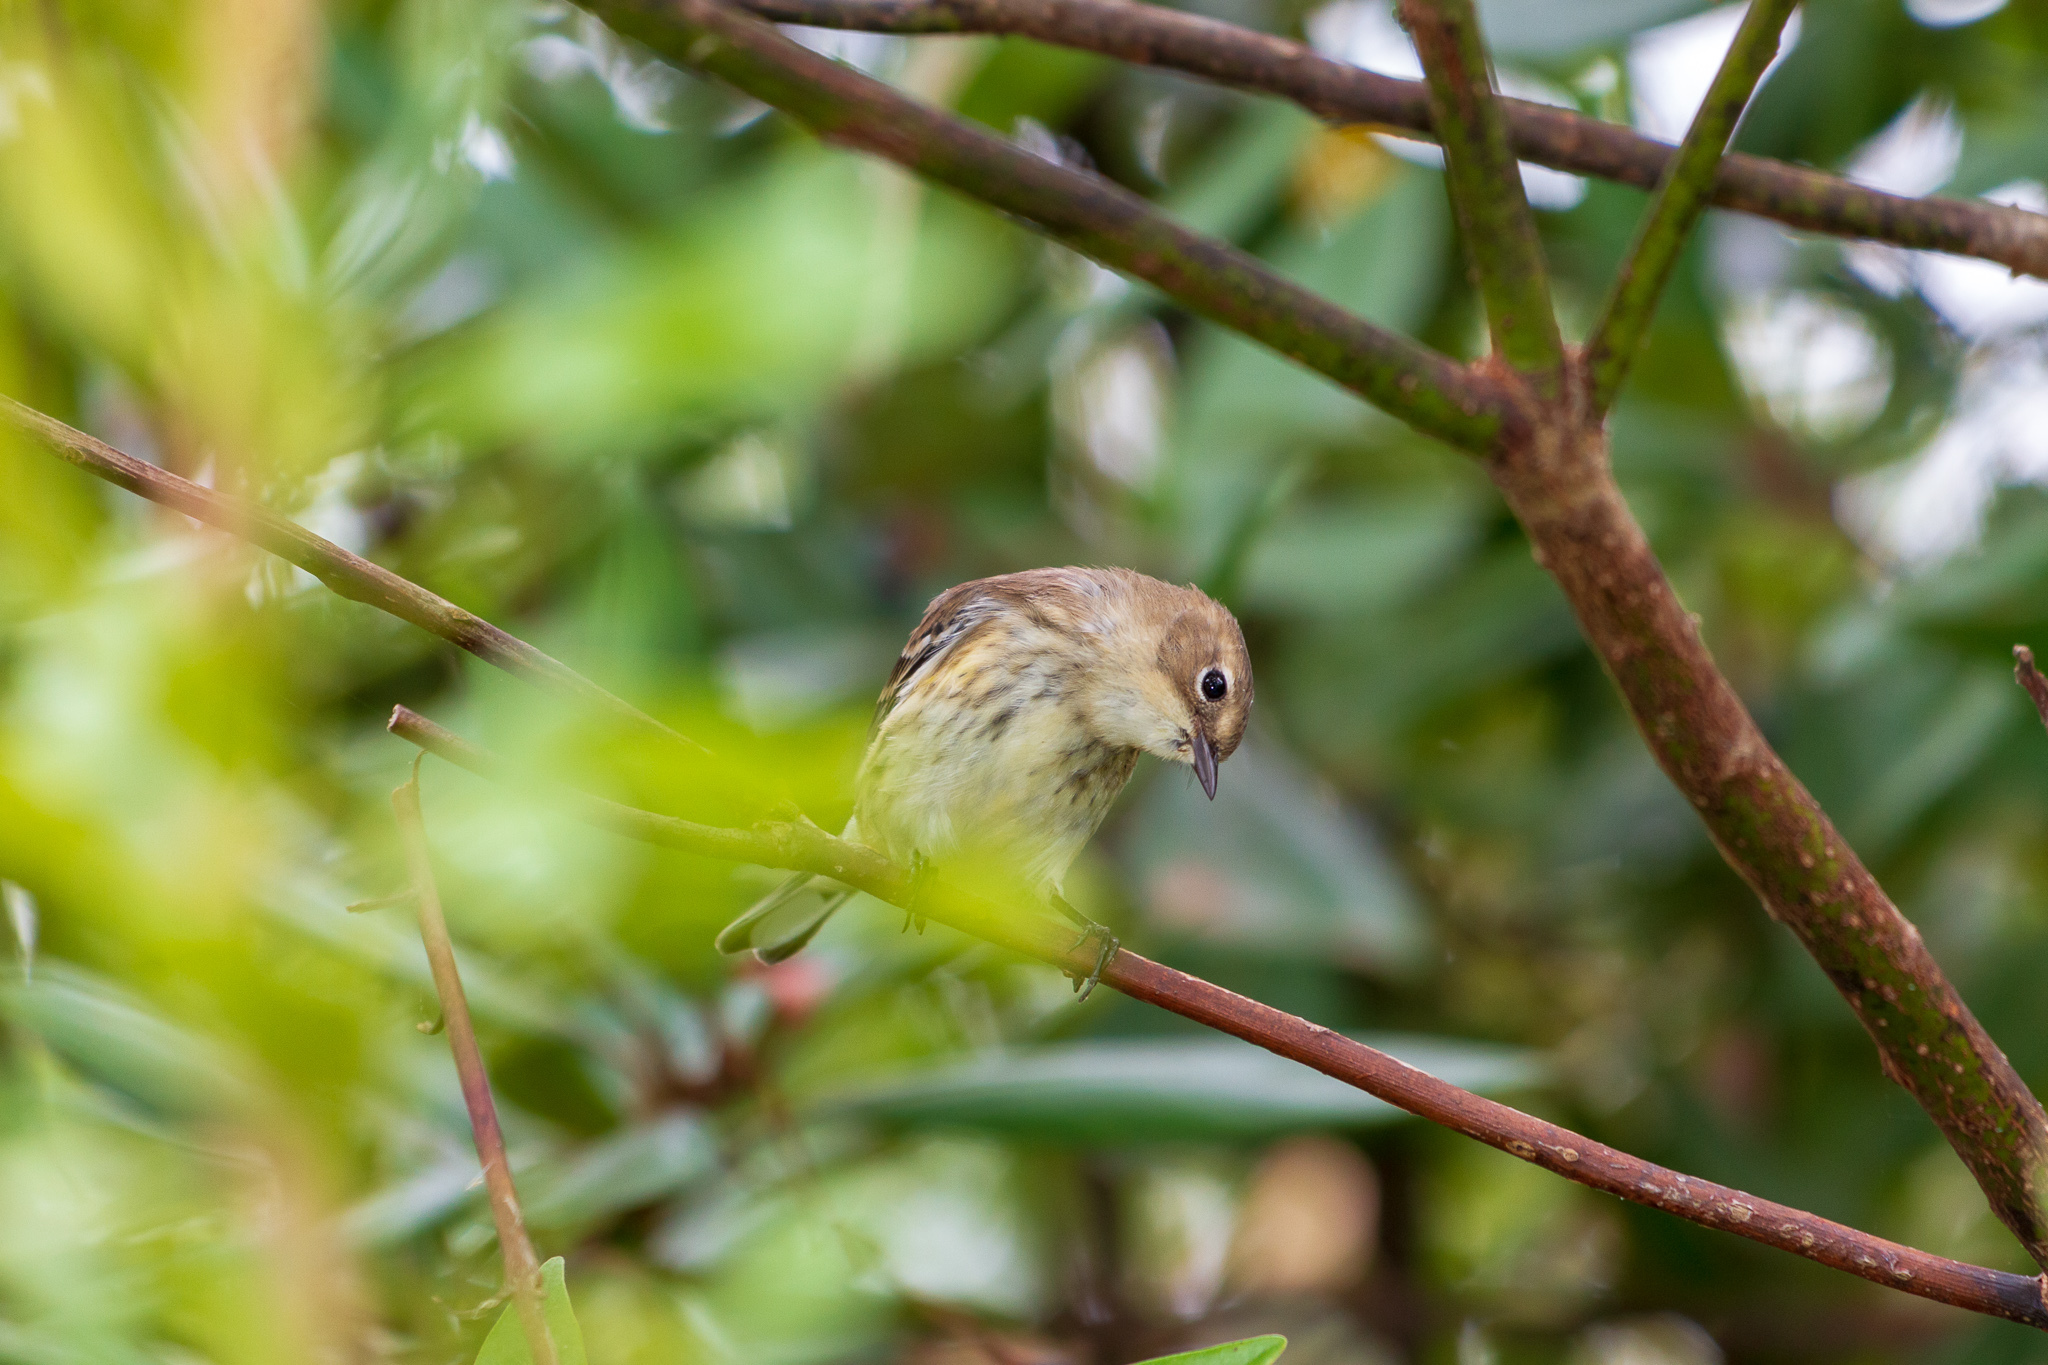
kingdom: Animalia
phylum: Chordata
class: Aves
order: Passeriformes
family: Parulidae
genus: Setophaga
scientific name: Setophaga coronata
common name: Myrtle warbler
